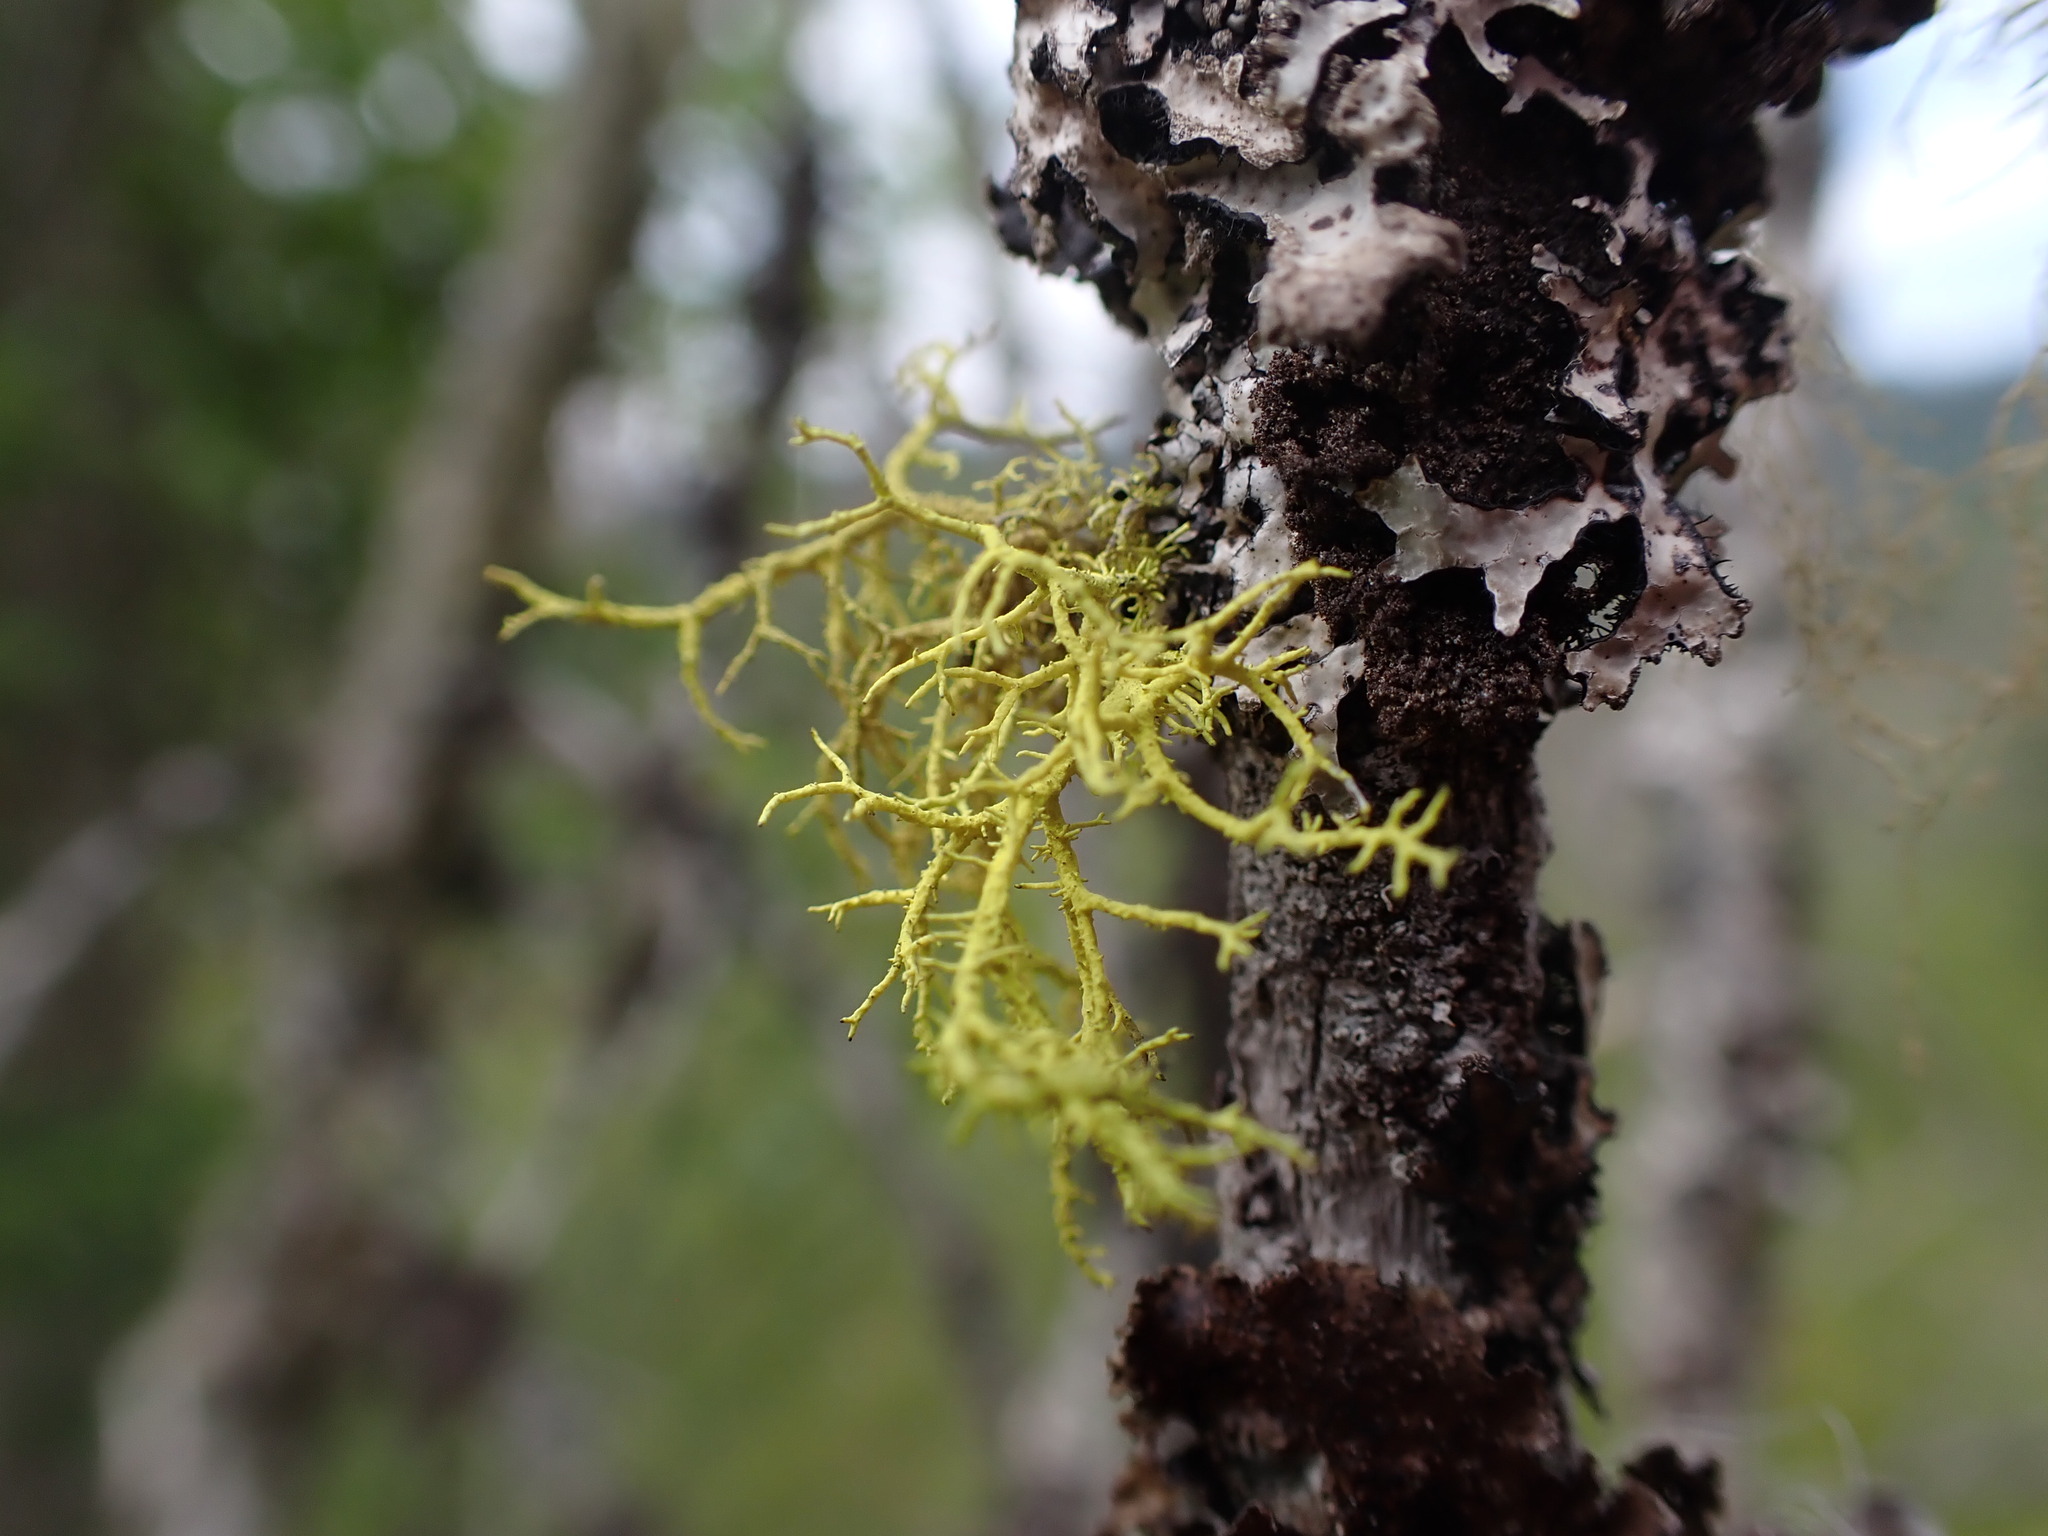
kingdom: Fungi
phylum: Ascomycota
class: Lecanoromycetes
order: Lecanorales
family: Parmeliaceae
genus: Letharia
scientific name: Letharia vulpina
